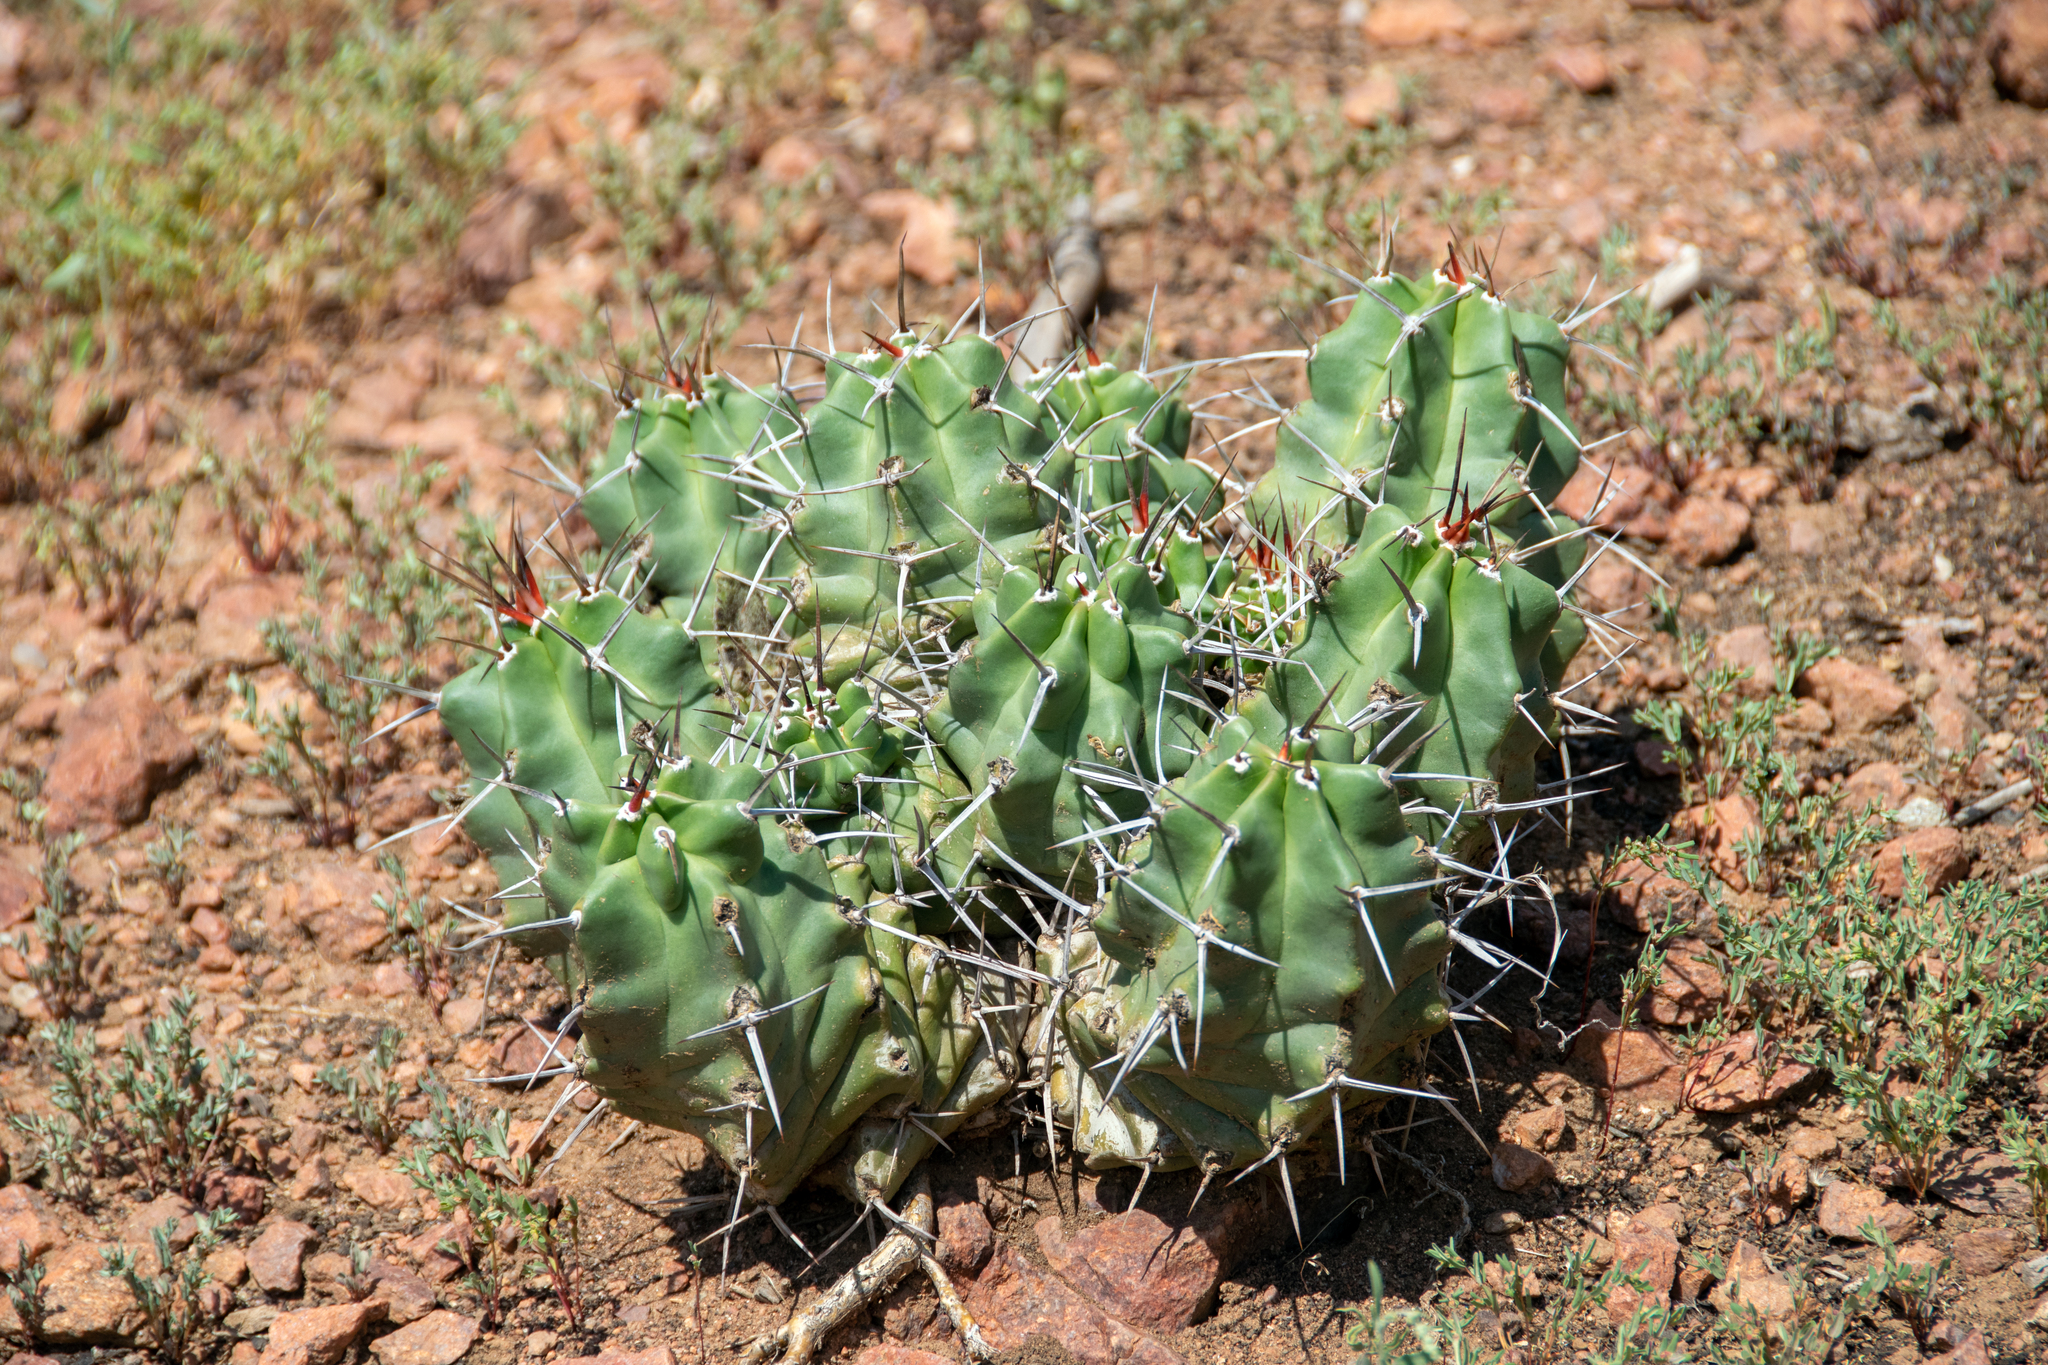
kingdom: Plantae
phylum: Tracheophyta
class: Magnoliopsida
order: Caryophyllales
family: Cactaceae
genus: Echinocereus
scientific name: Echinocereus triglochidiatus
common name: Claretcup hedgehog
